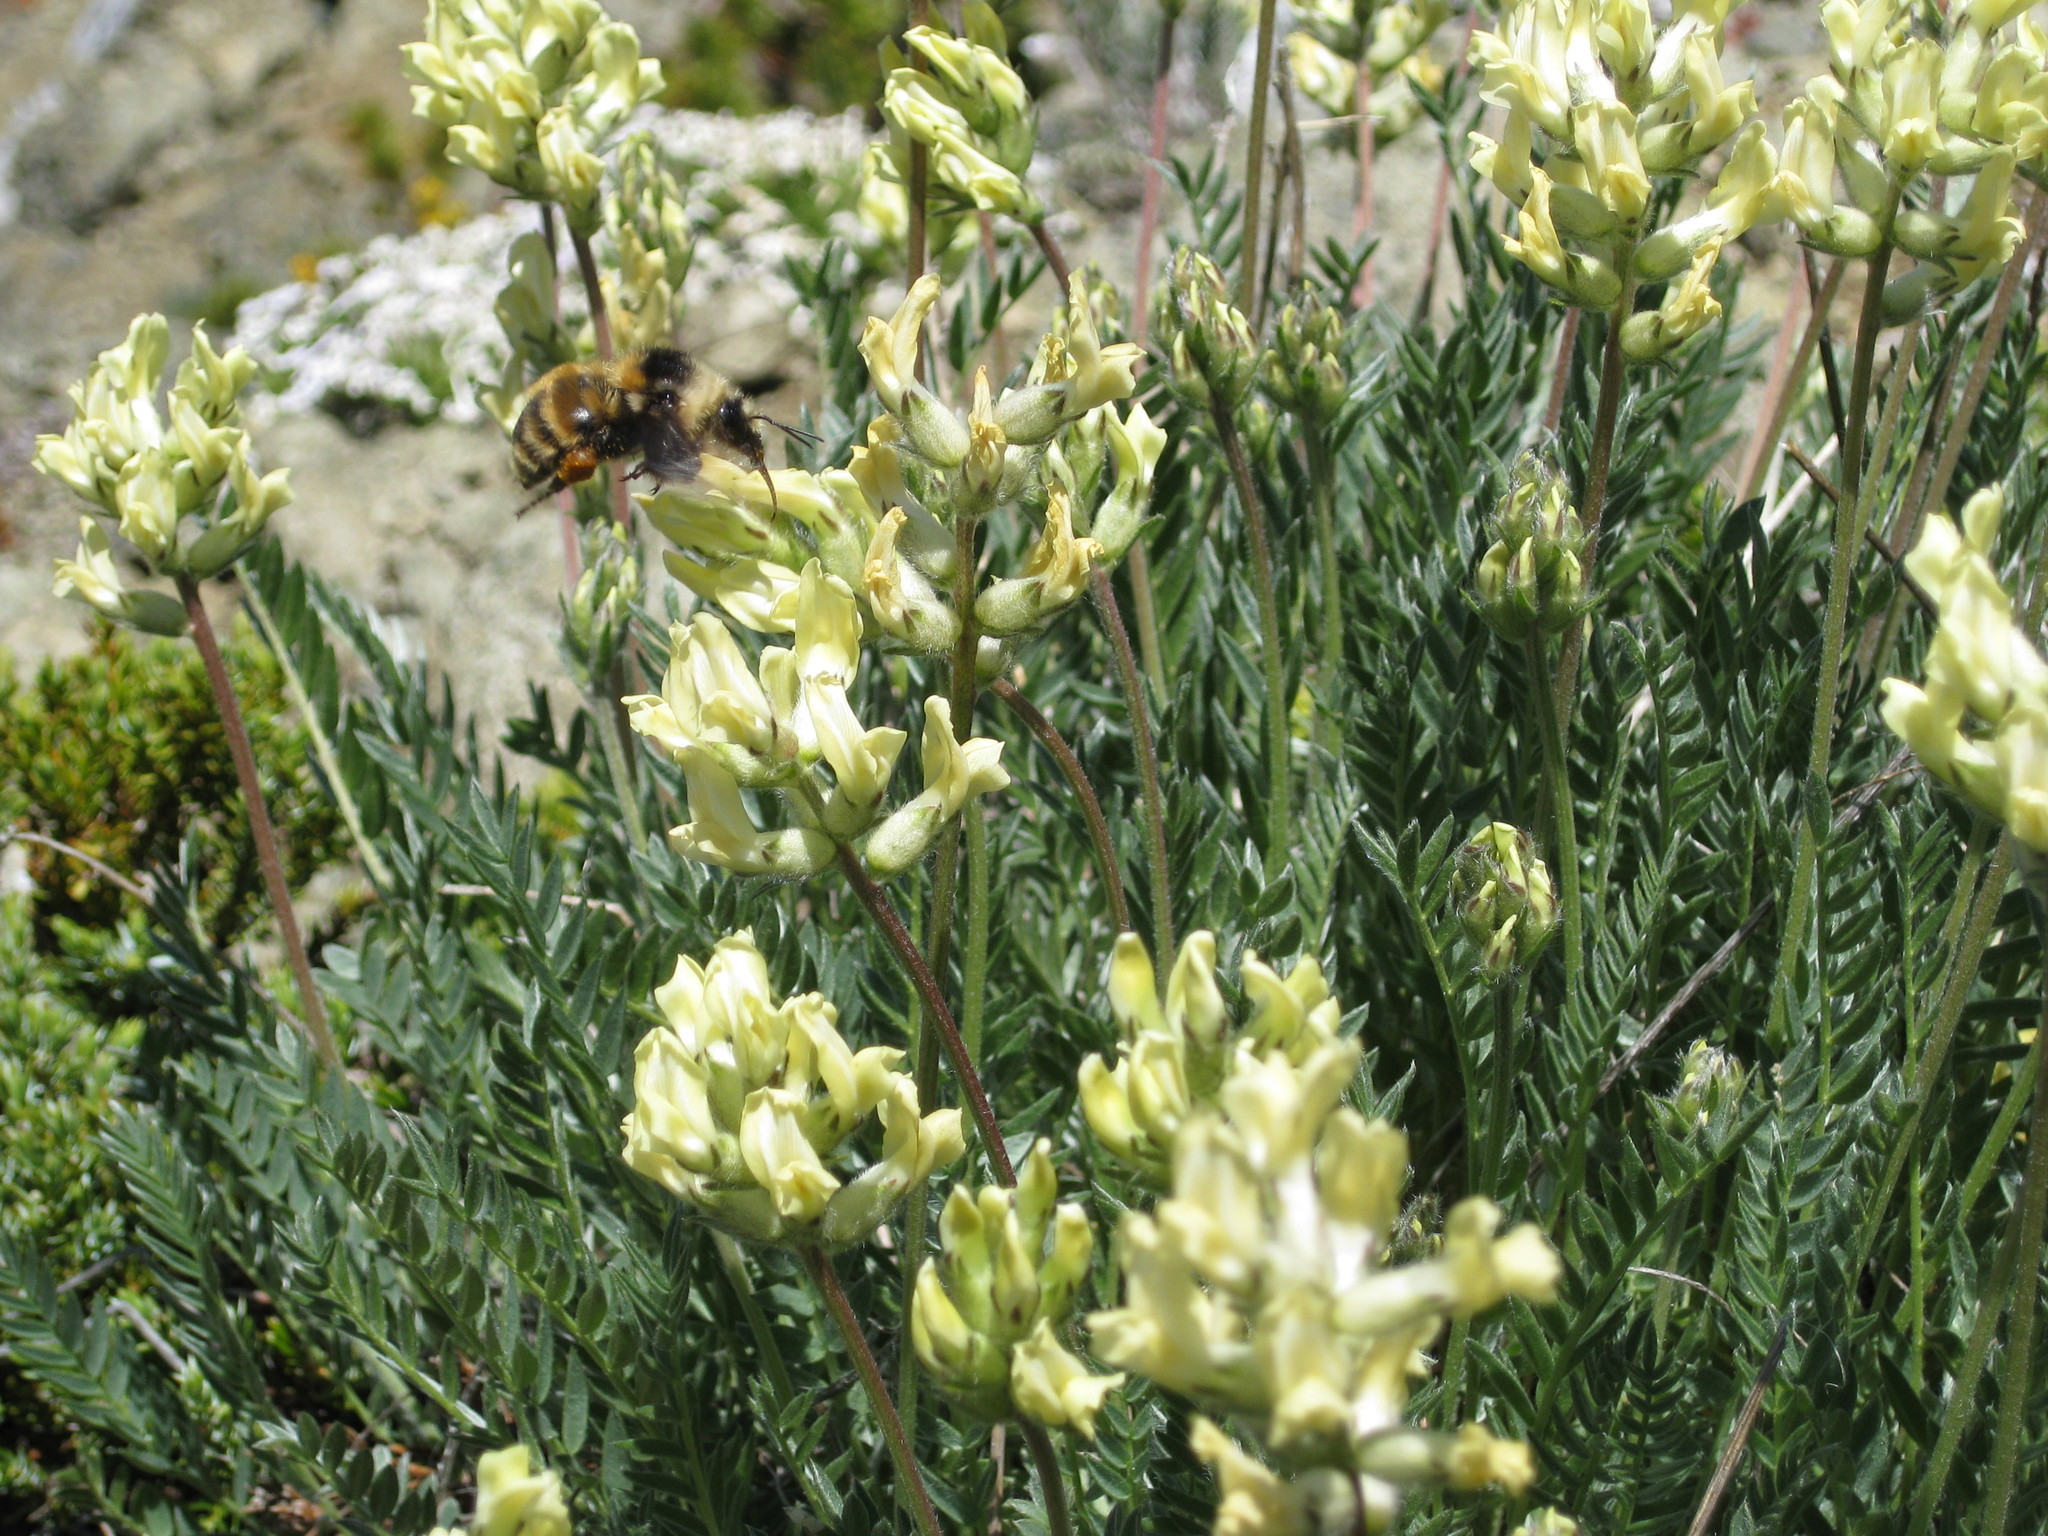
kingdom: Plantae
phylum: Tracheophyta
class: Magnoliopsida
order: Fabales
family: Fabaceae
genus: Oxytropis
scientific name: Oxytropis campestris
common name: Field locoweed
